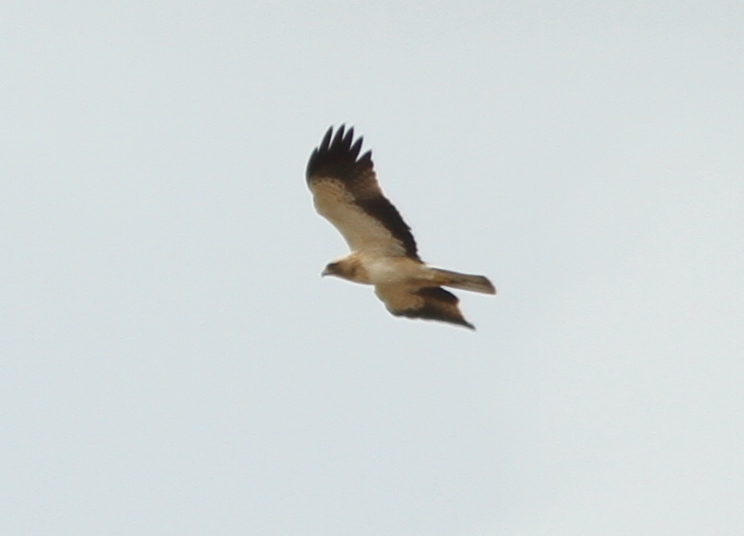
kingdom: Animalia
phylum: Chordata
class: Aves
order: Accipitriformes
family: Accipitridae
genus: Hieraaetus
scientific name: Hieraaetus pennatus
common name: Booted eagle
